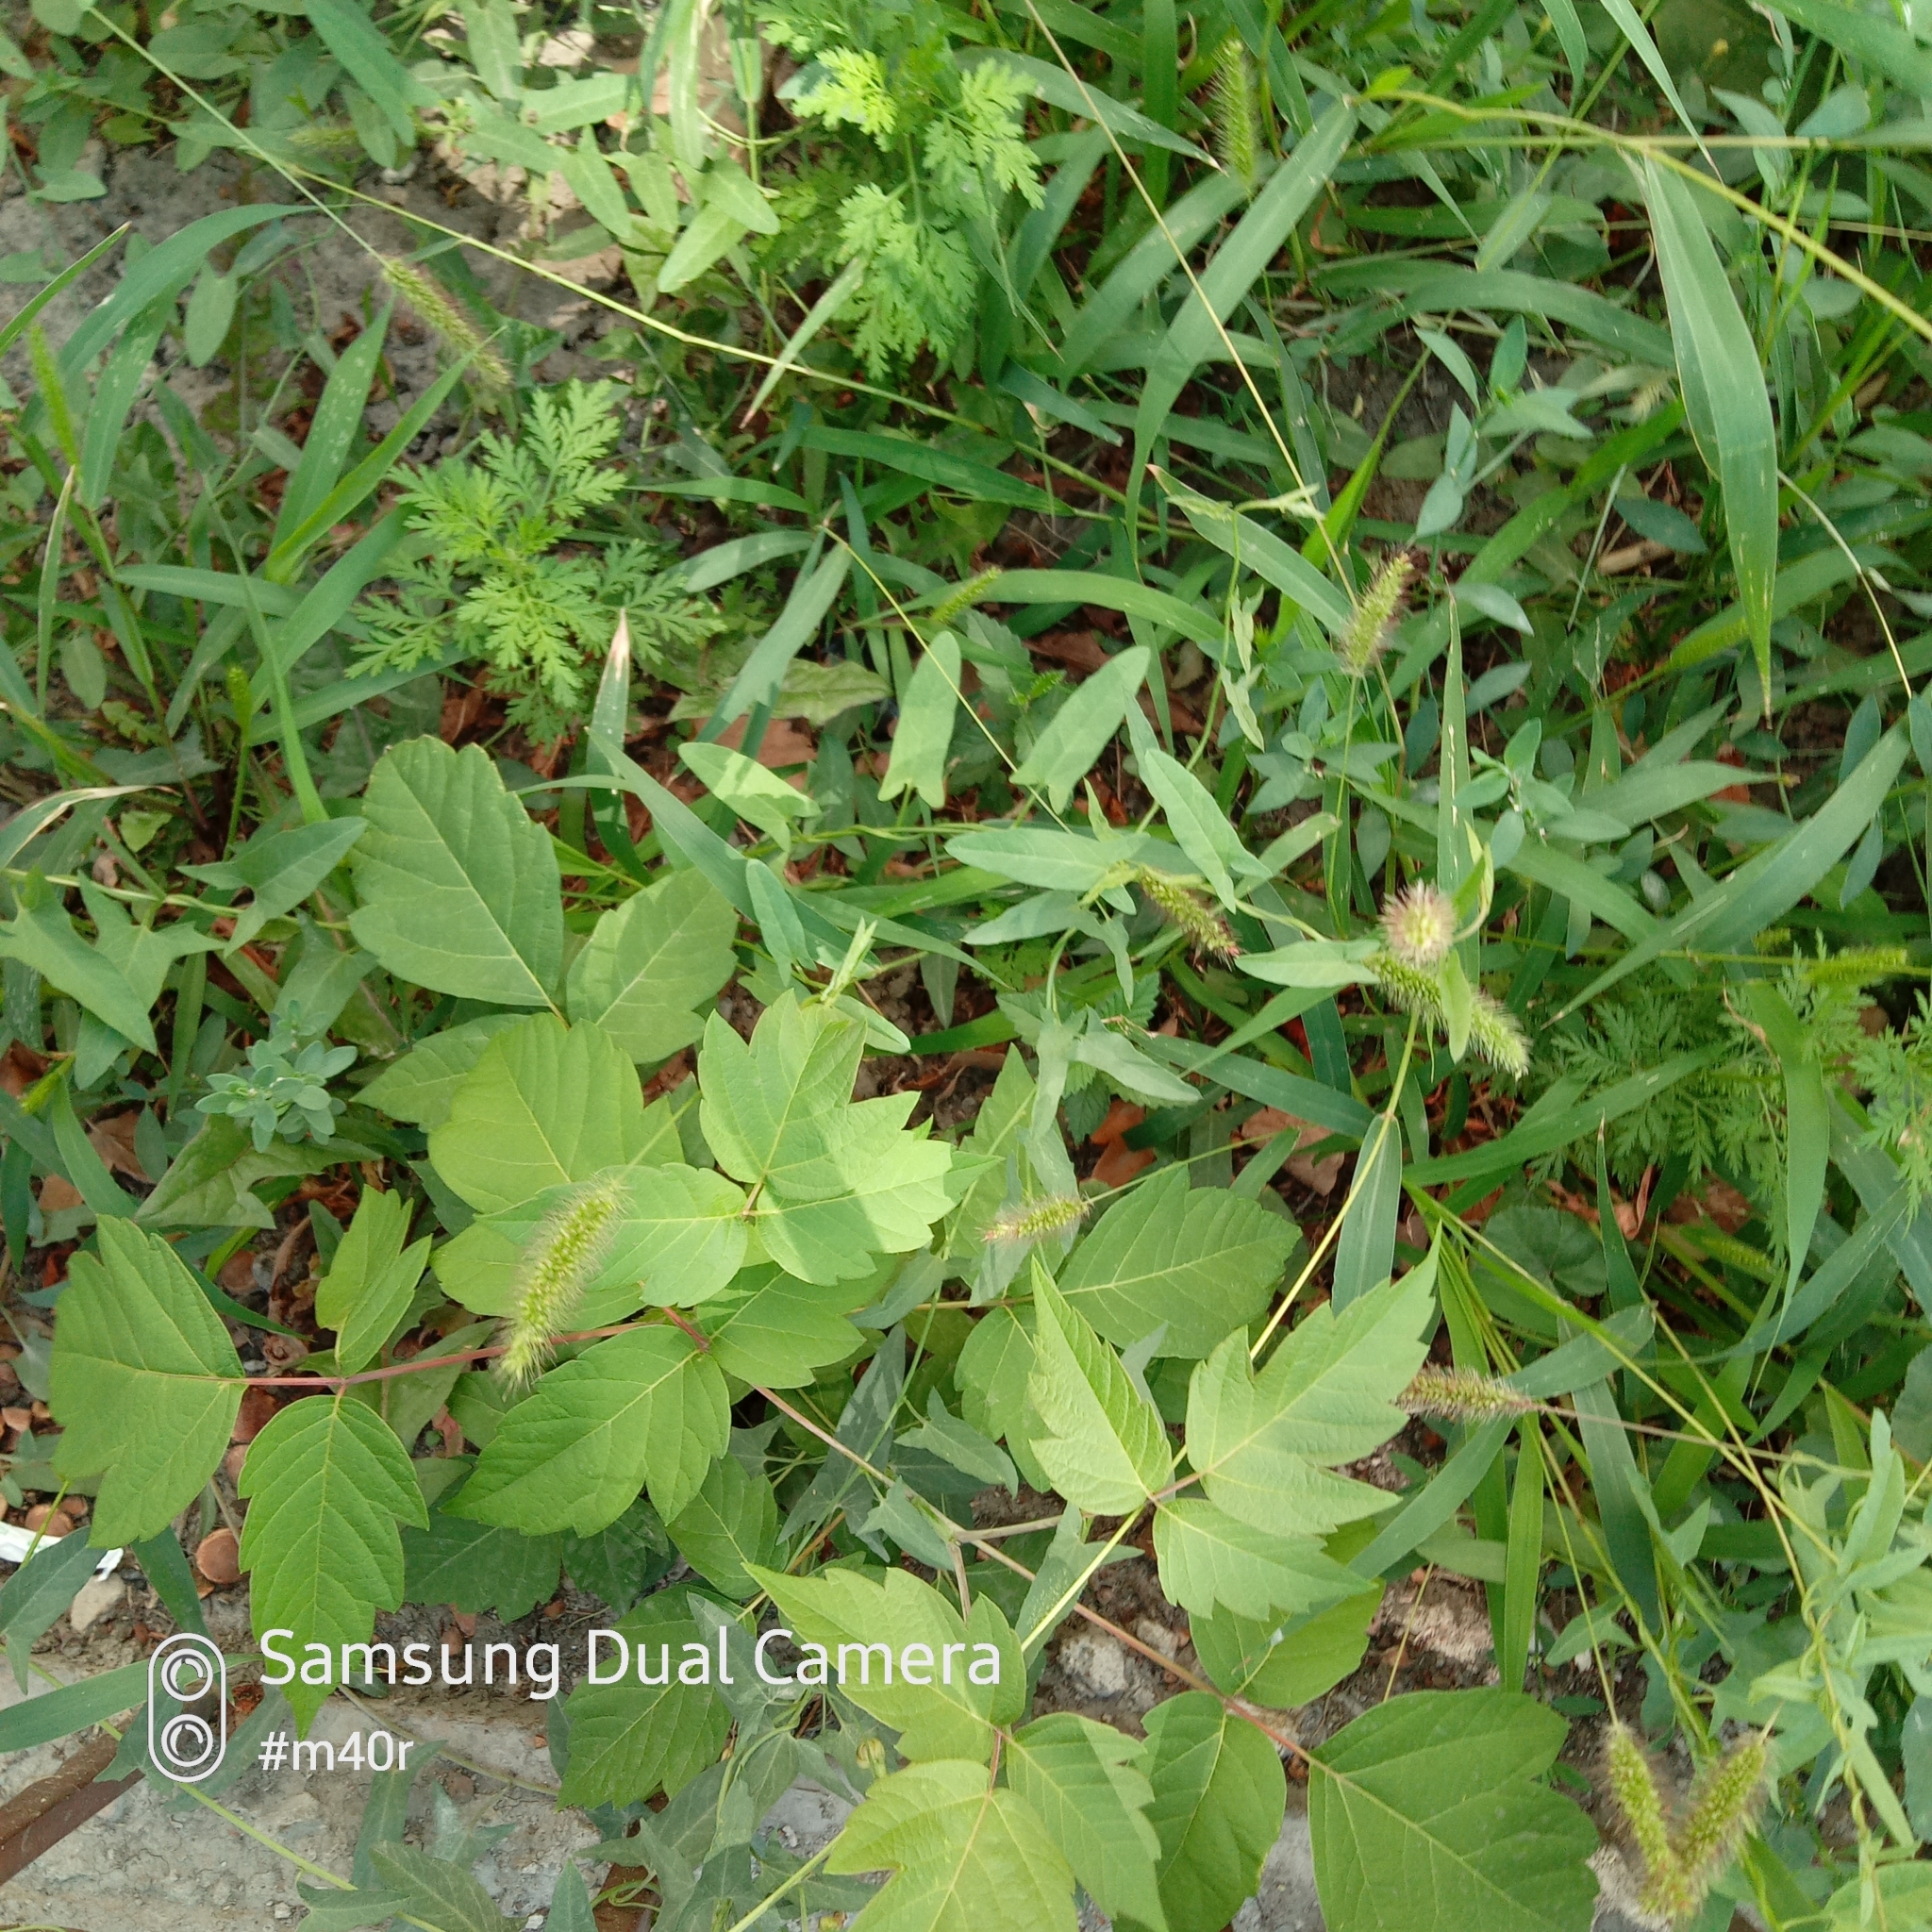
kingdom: Plantae
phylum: Tracheophyta
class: Magnoliopsida
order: Sapindales
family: Sapindaceae
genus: Acer
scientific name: Acer negundo
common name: Ashleaf maple
